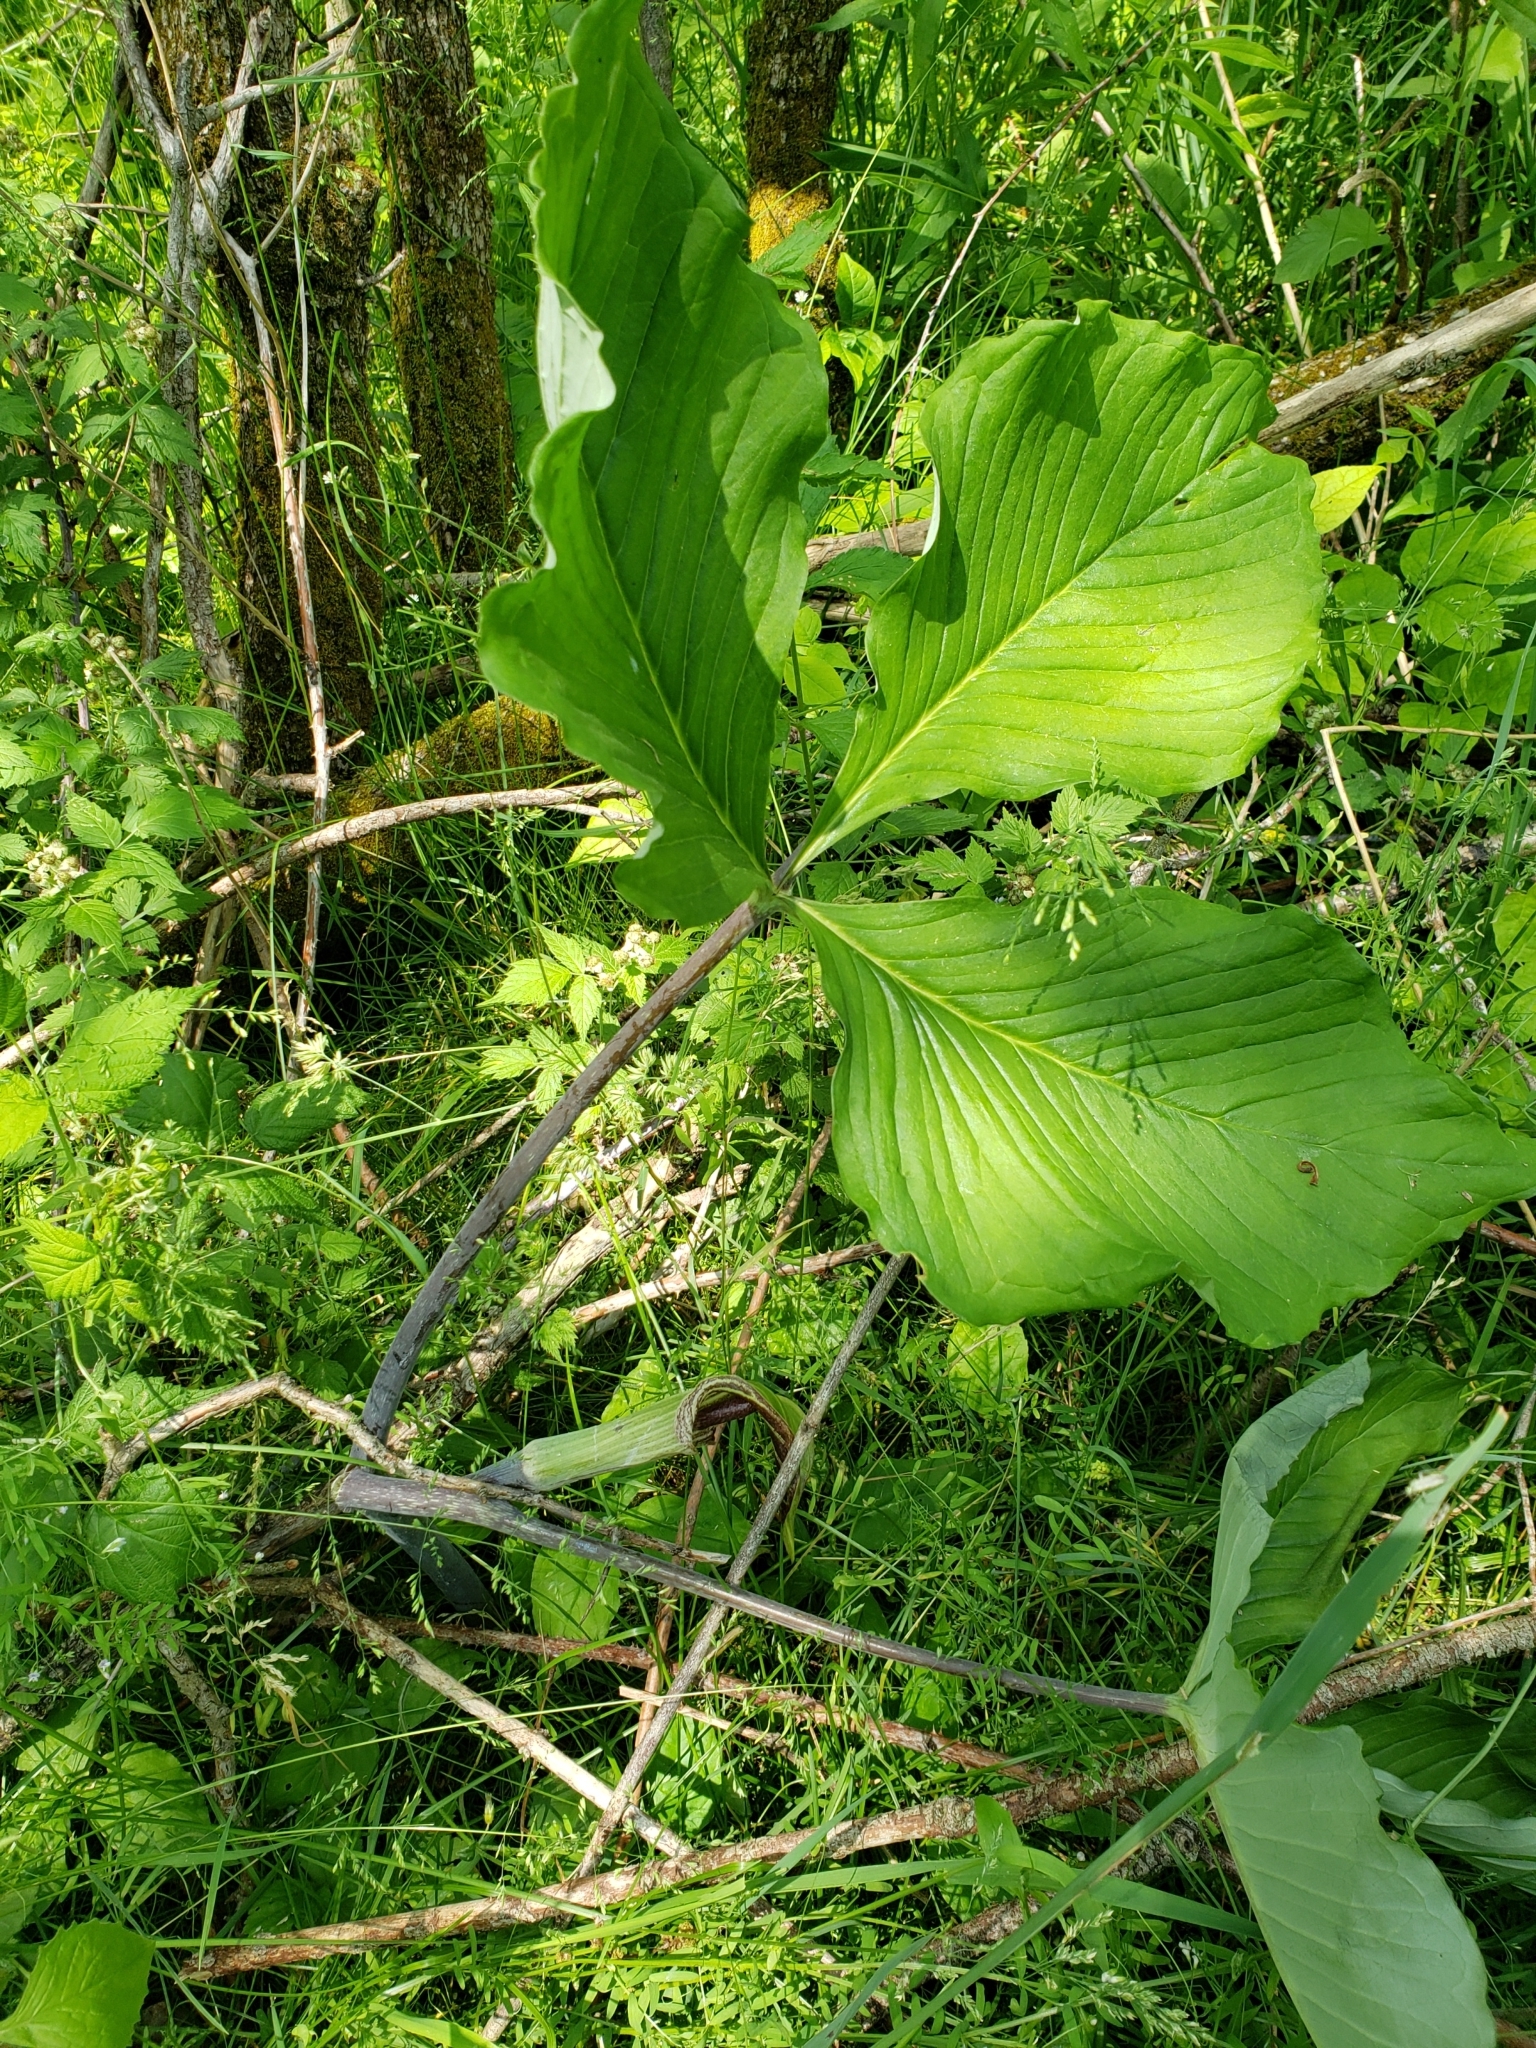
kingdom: Plantae
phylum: Tracheophyta
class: Liliopsida
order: Alismatales
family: Araceae
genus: Arisaema
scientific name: Arisaema triphyllum
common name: Jack-in-the-pulpit
